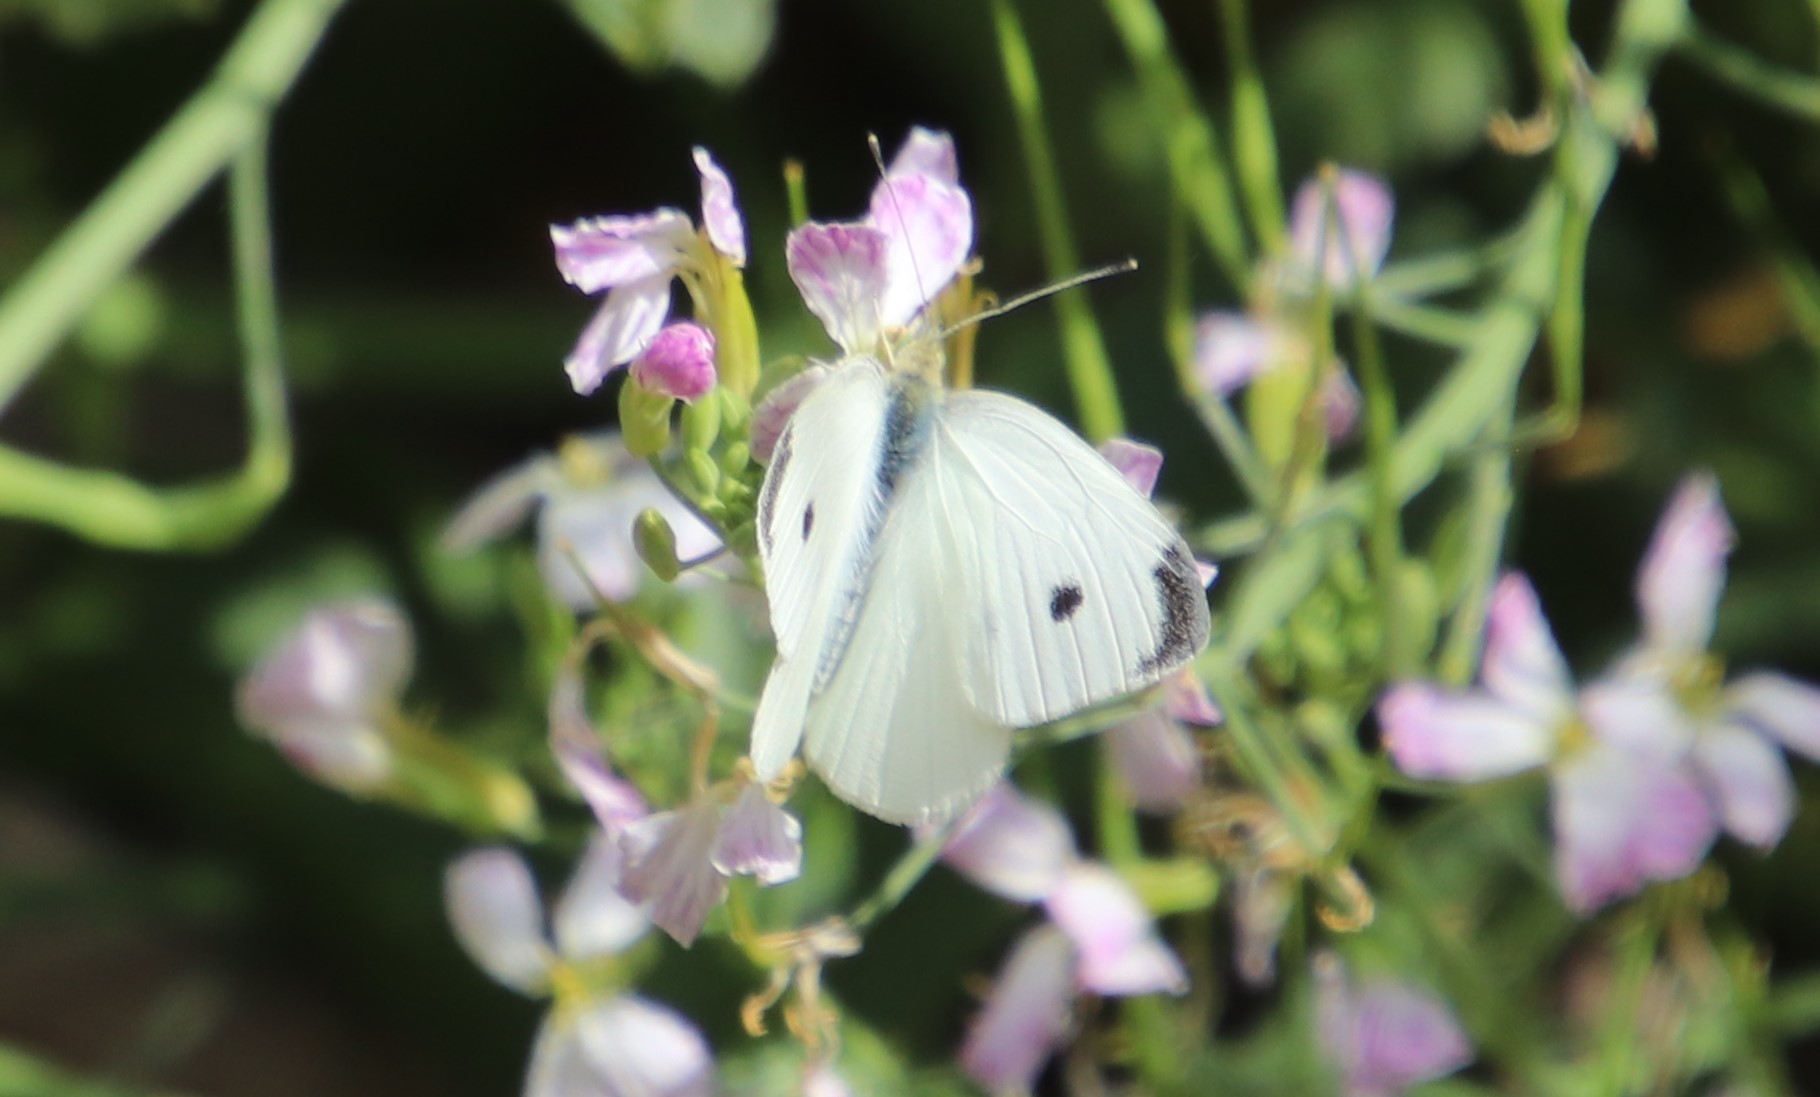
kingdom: Animalia
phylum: Arthropoda
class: Insecta
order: Lepidoptera
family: Pieridae
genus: Pieris
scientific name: Pieris rapae
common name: Small white
